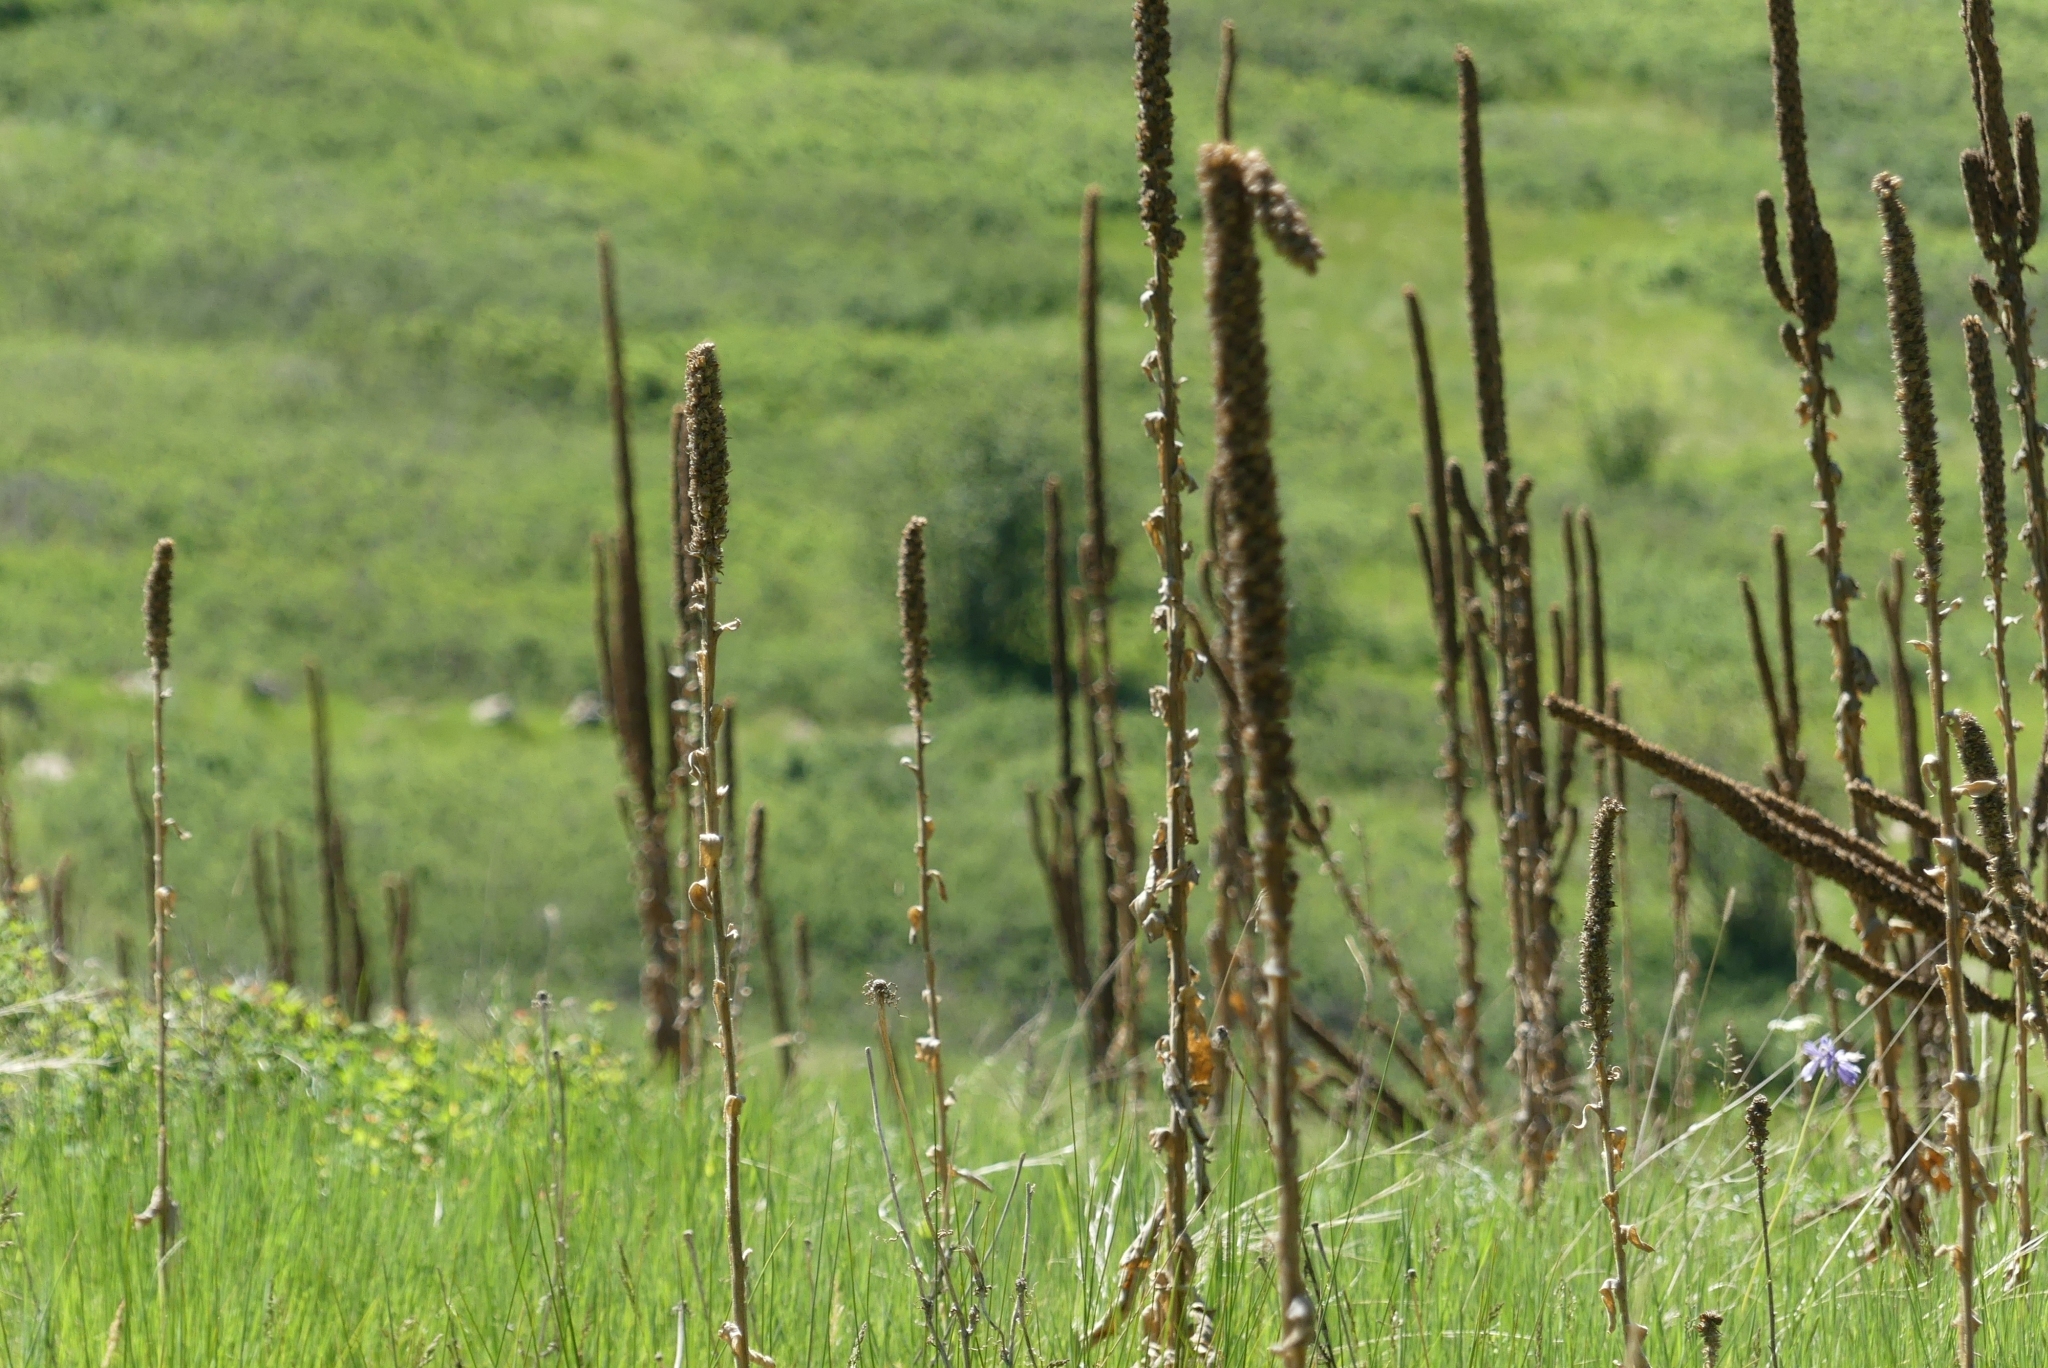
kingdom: Plantae
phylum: Tracheophyta
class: Magnoliopsida
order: Lamiales
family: Scrophulariaceae
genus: Verbascum
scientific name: Verbascum thapsus
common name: Common mullein
